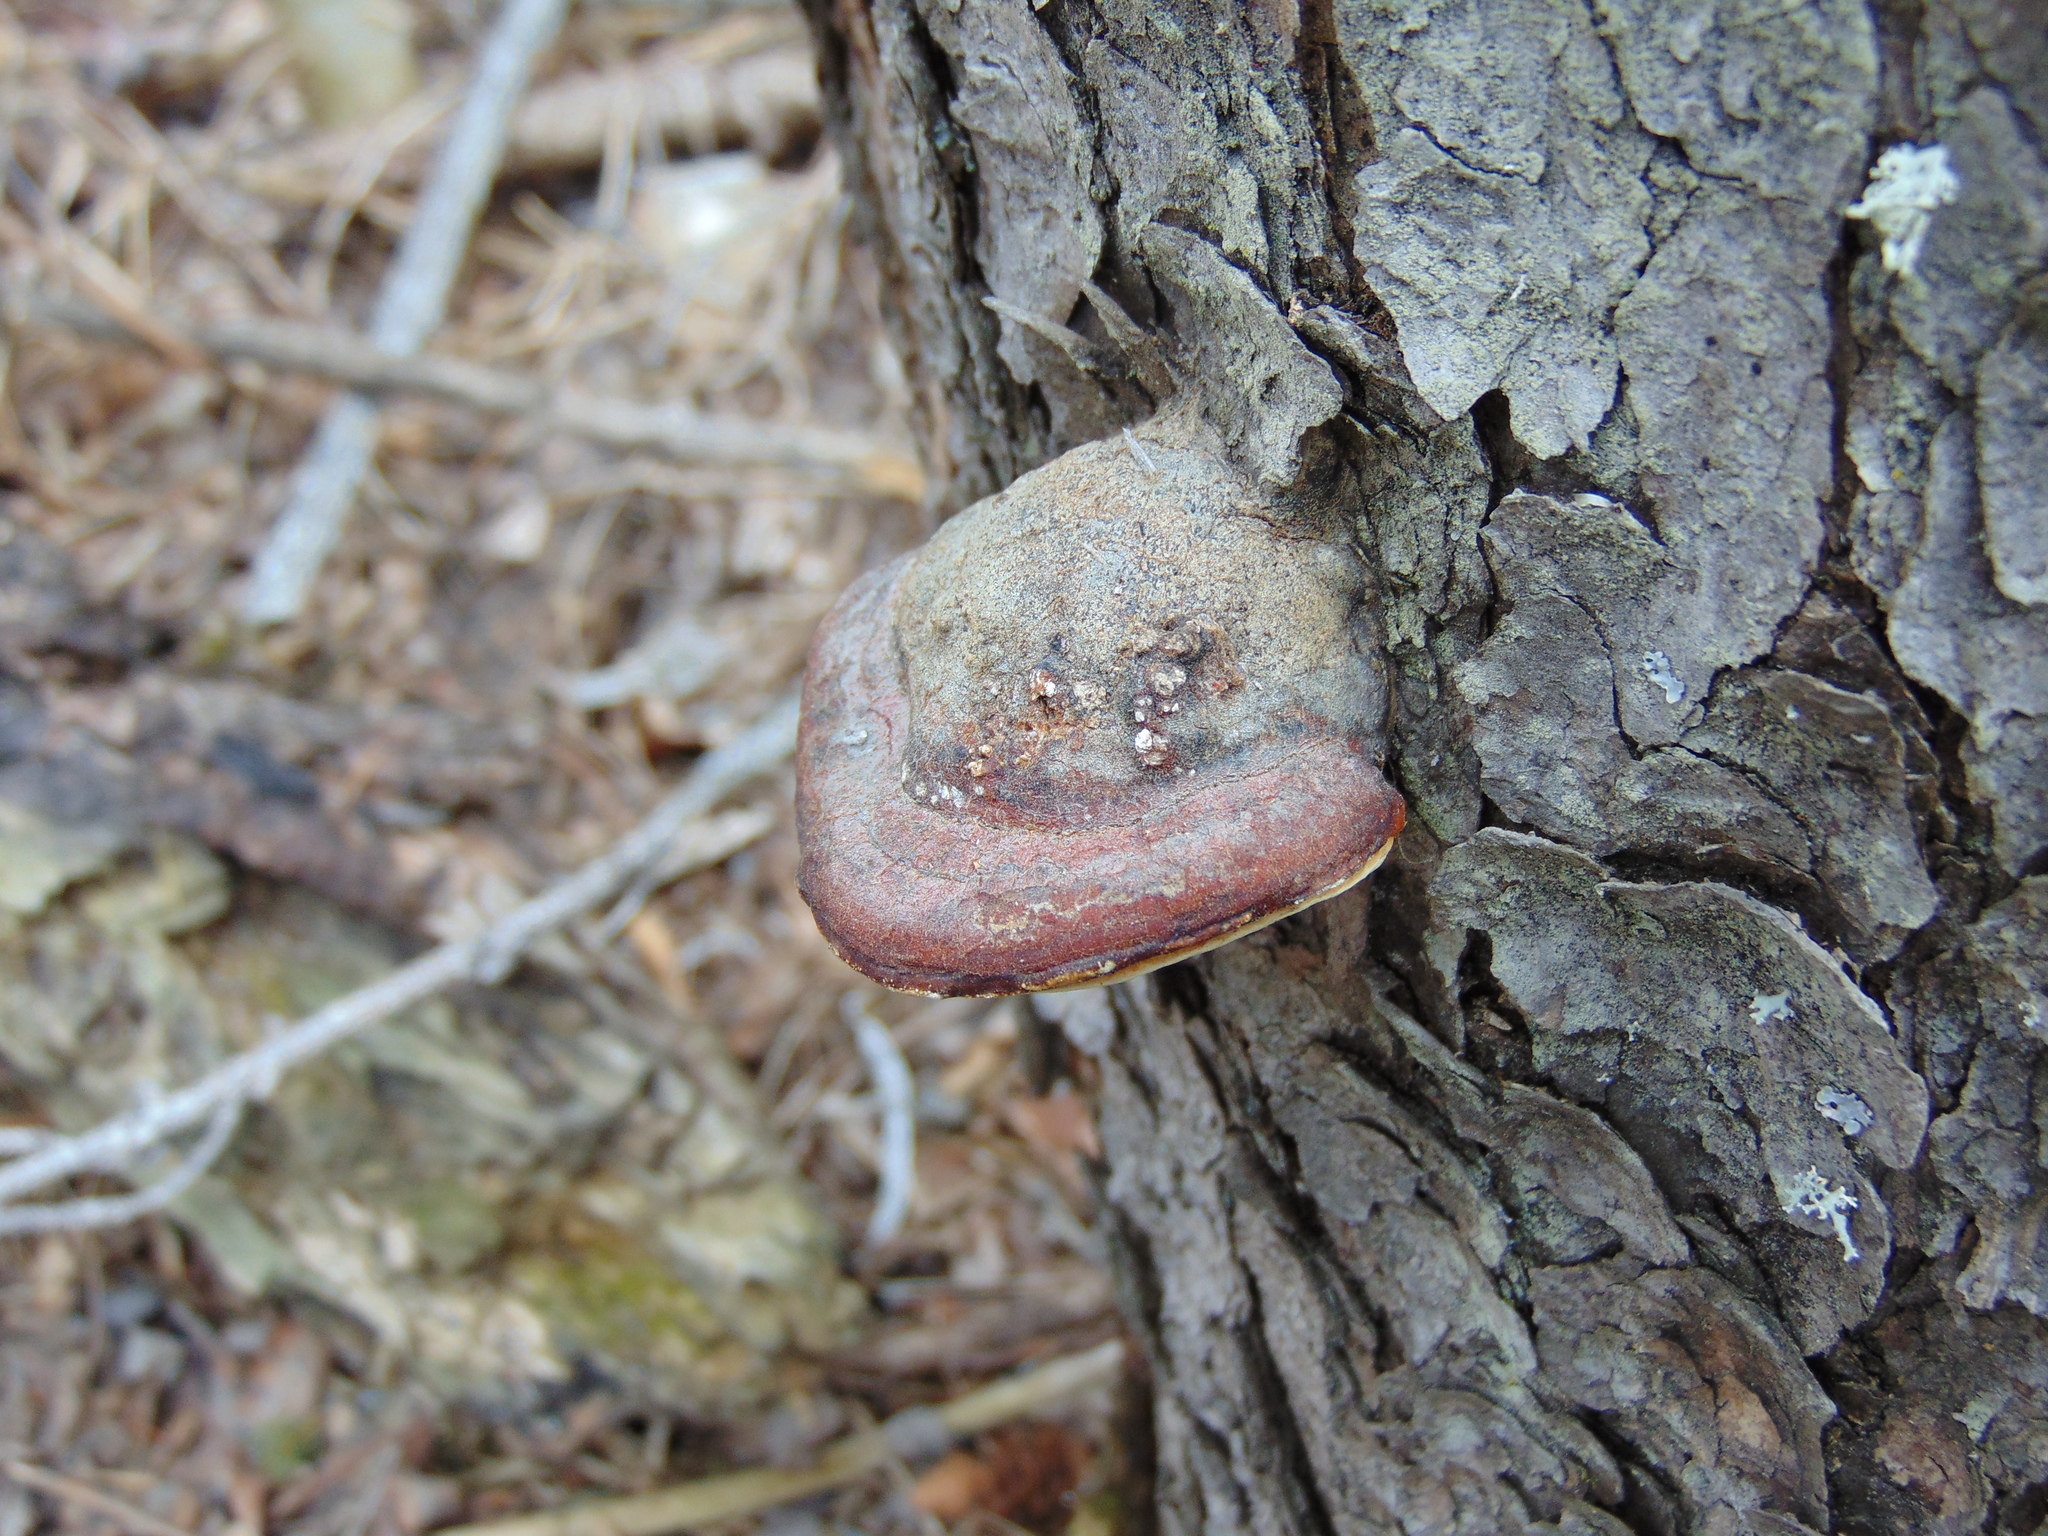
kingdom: Fungi
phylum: Basidiomycota
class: Agaricomycetes
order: Polyporales
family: Fomitopsidaceae
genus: Fomitopsis
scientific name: Fomitopsis mounceae
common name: Northern red belt
